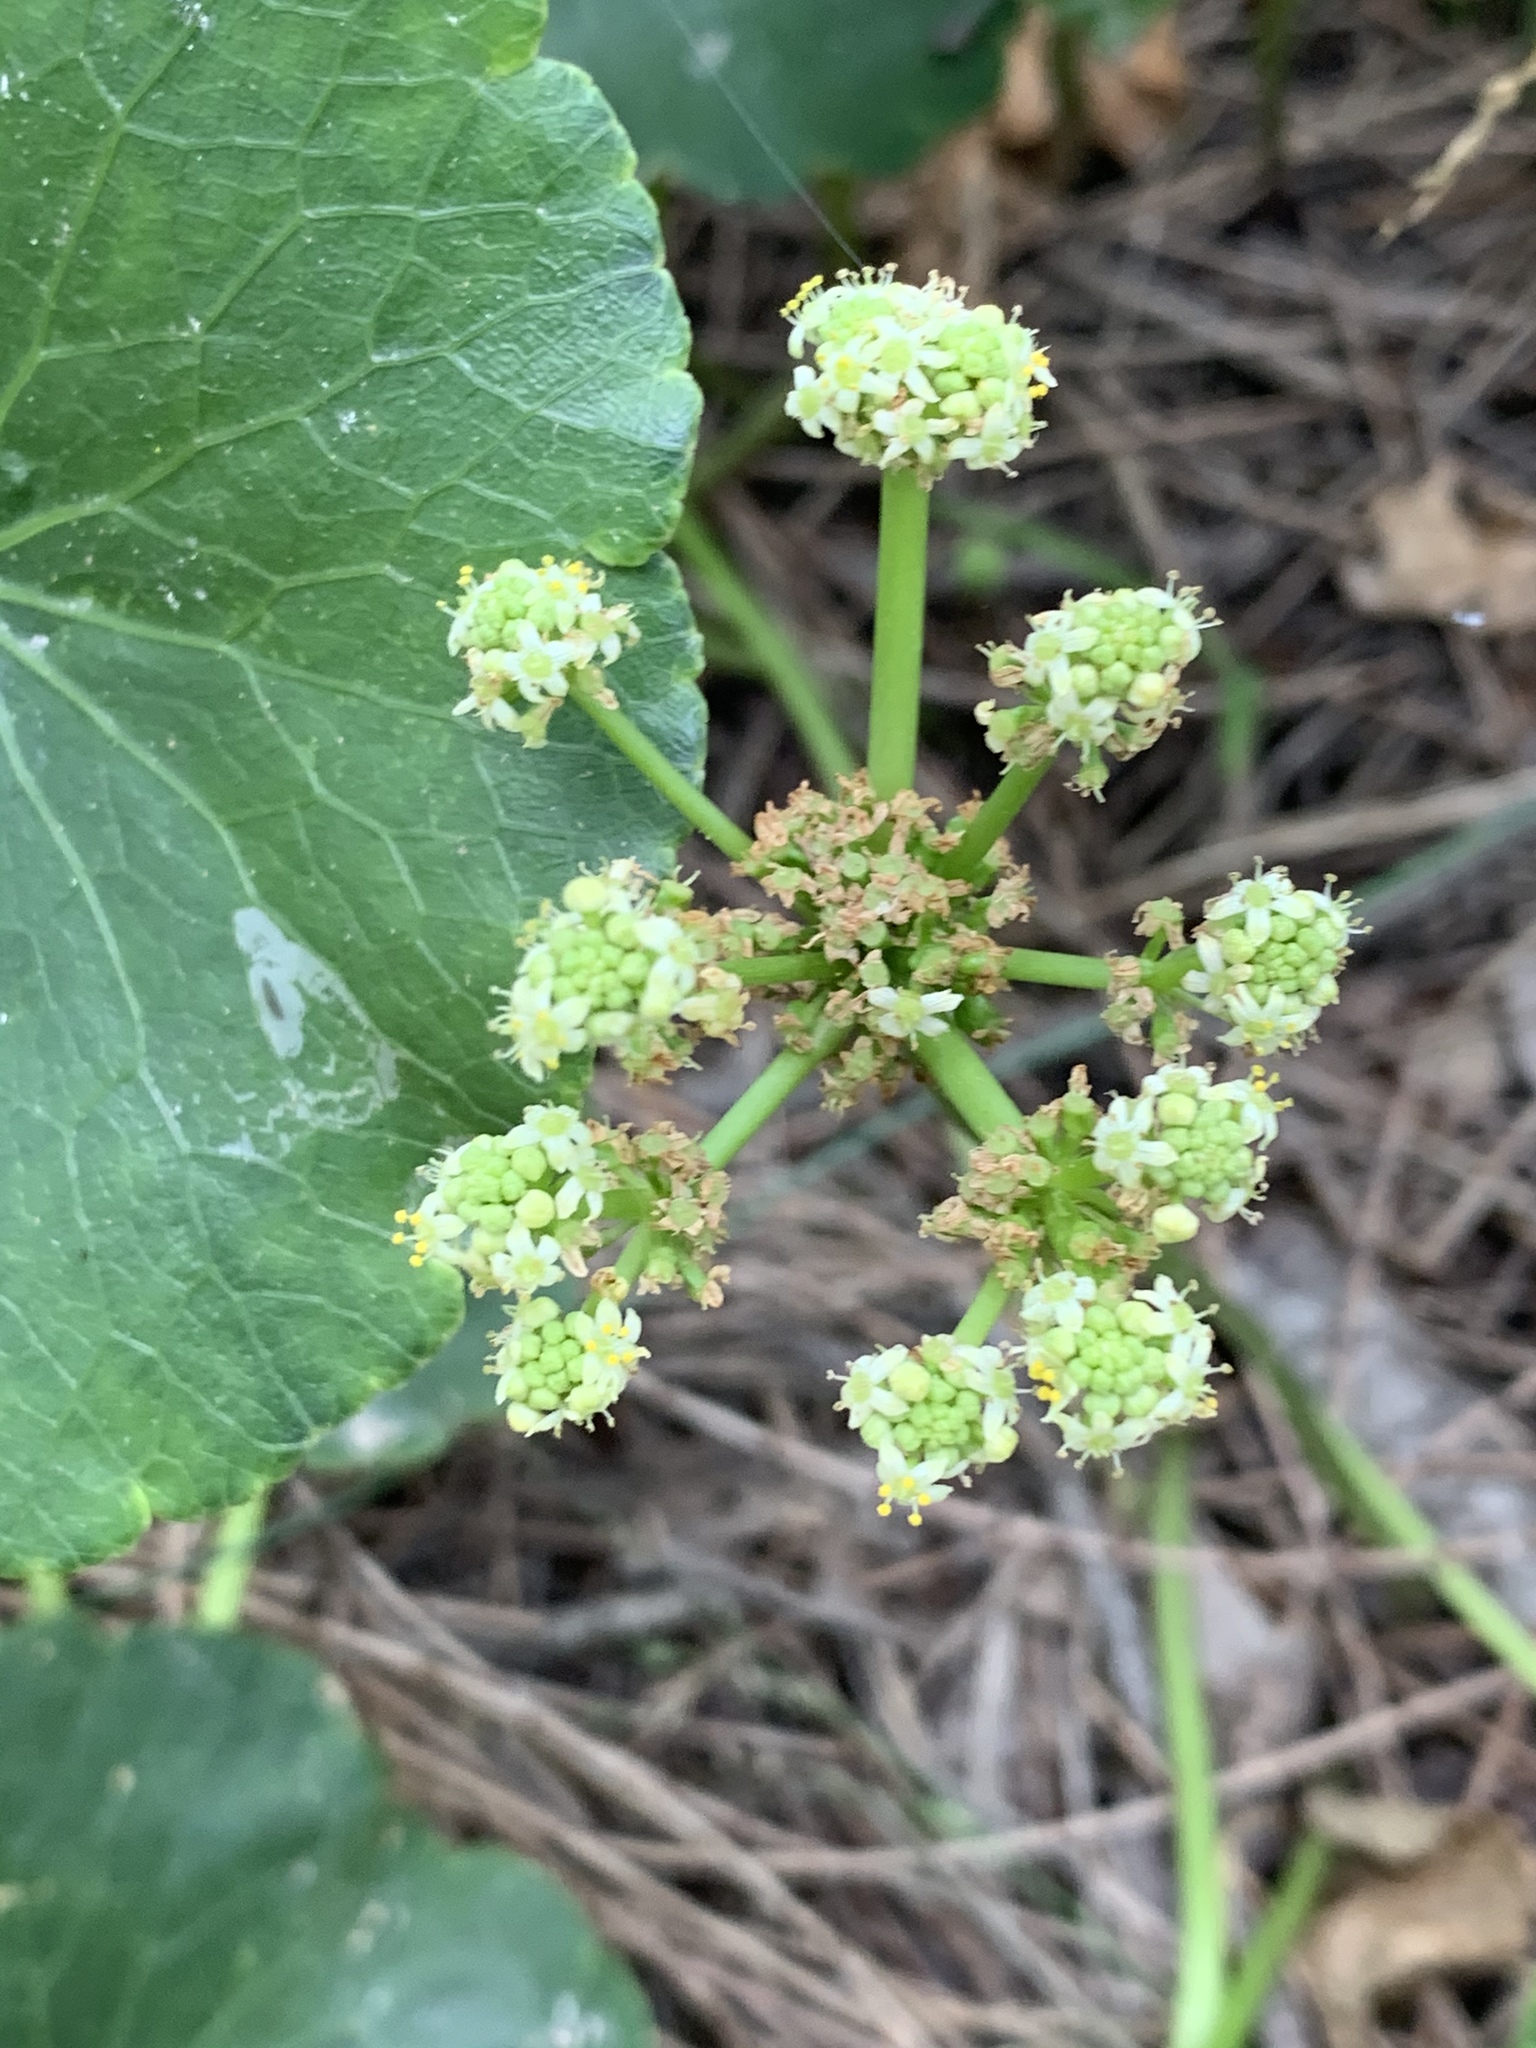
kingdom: Plantae
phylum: Tracheophyta
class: Magnoliopsida
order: Apiales
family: Araliaceae
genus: Hydrocotyle
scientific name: Hydrocotyle bonariensis
